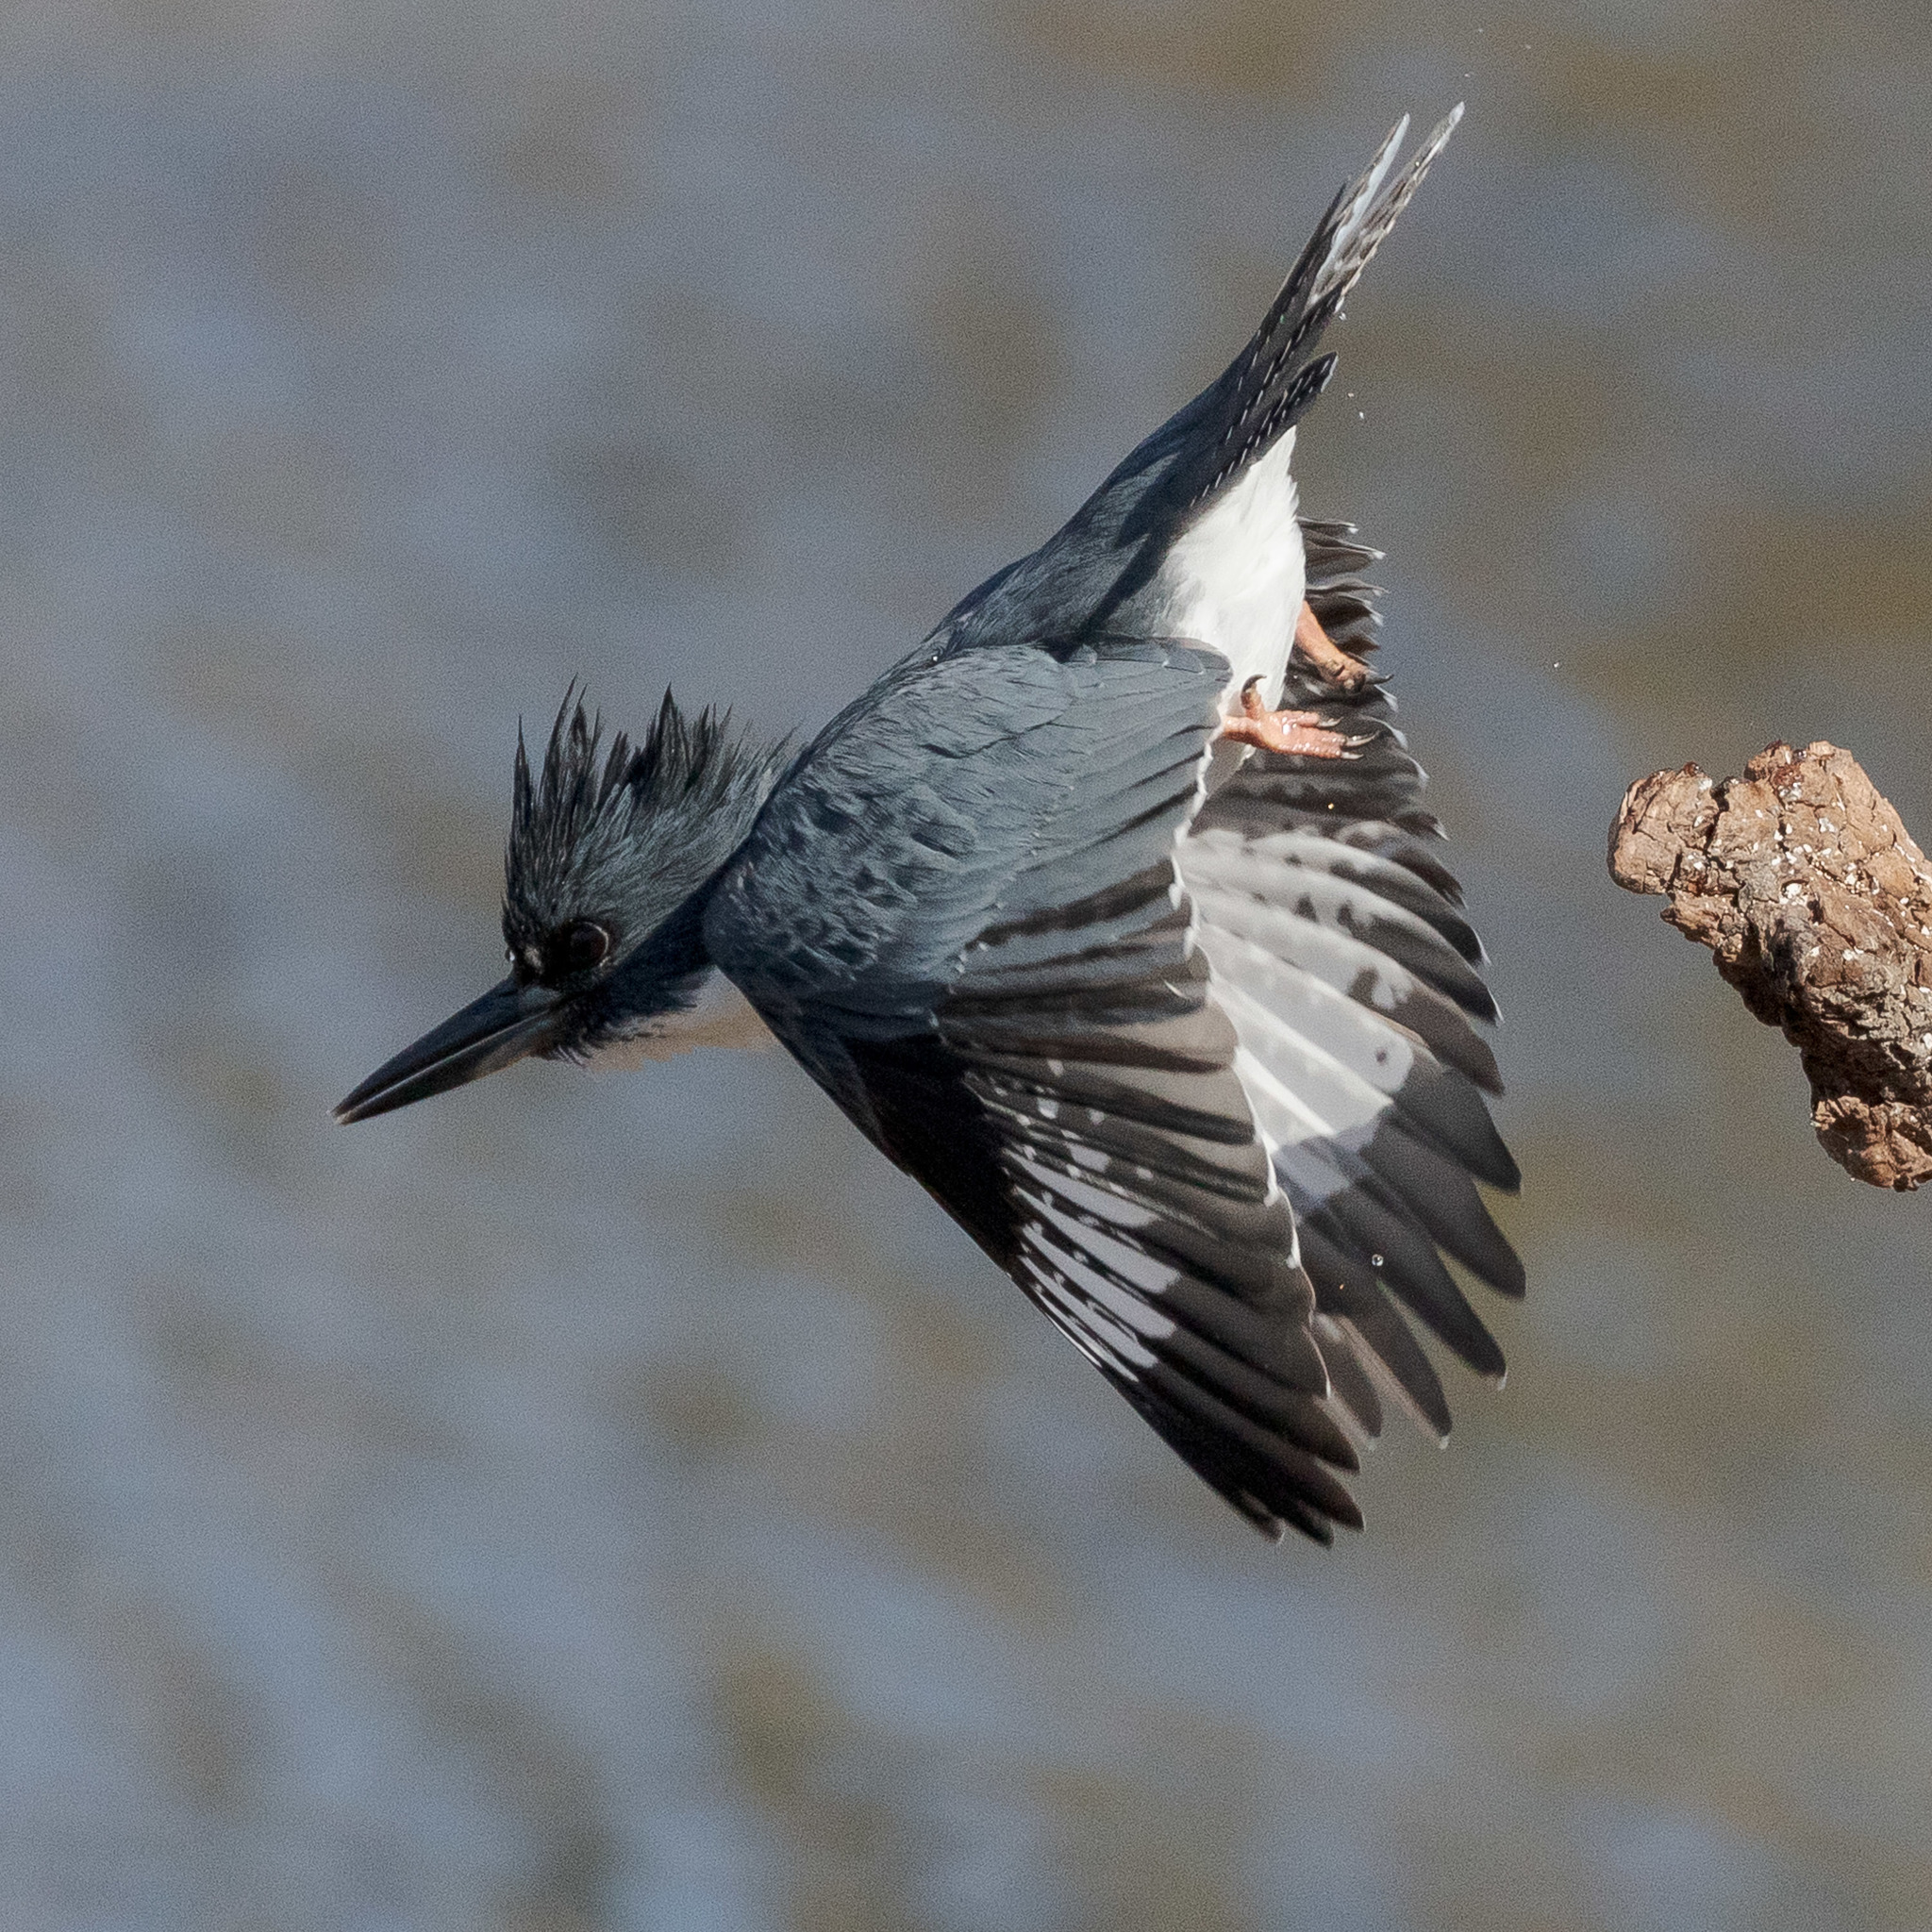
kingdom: Animalia
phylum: Chordata
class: Aves
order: Coraciiformes
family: Alcedinidae
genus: Megaceryle
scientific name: Megaceryle alcyon
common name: Belted kingfisher
